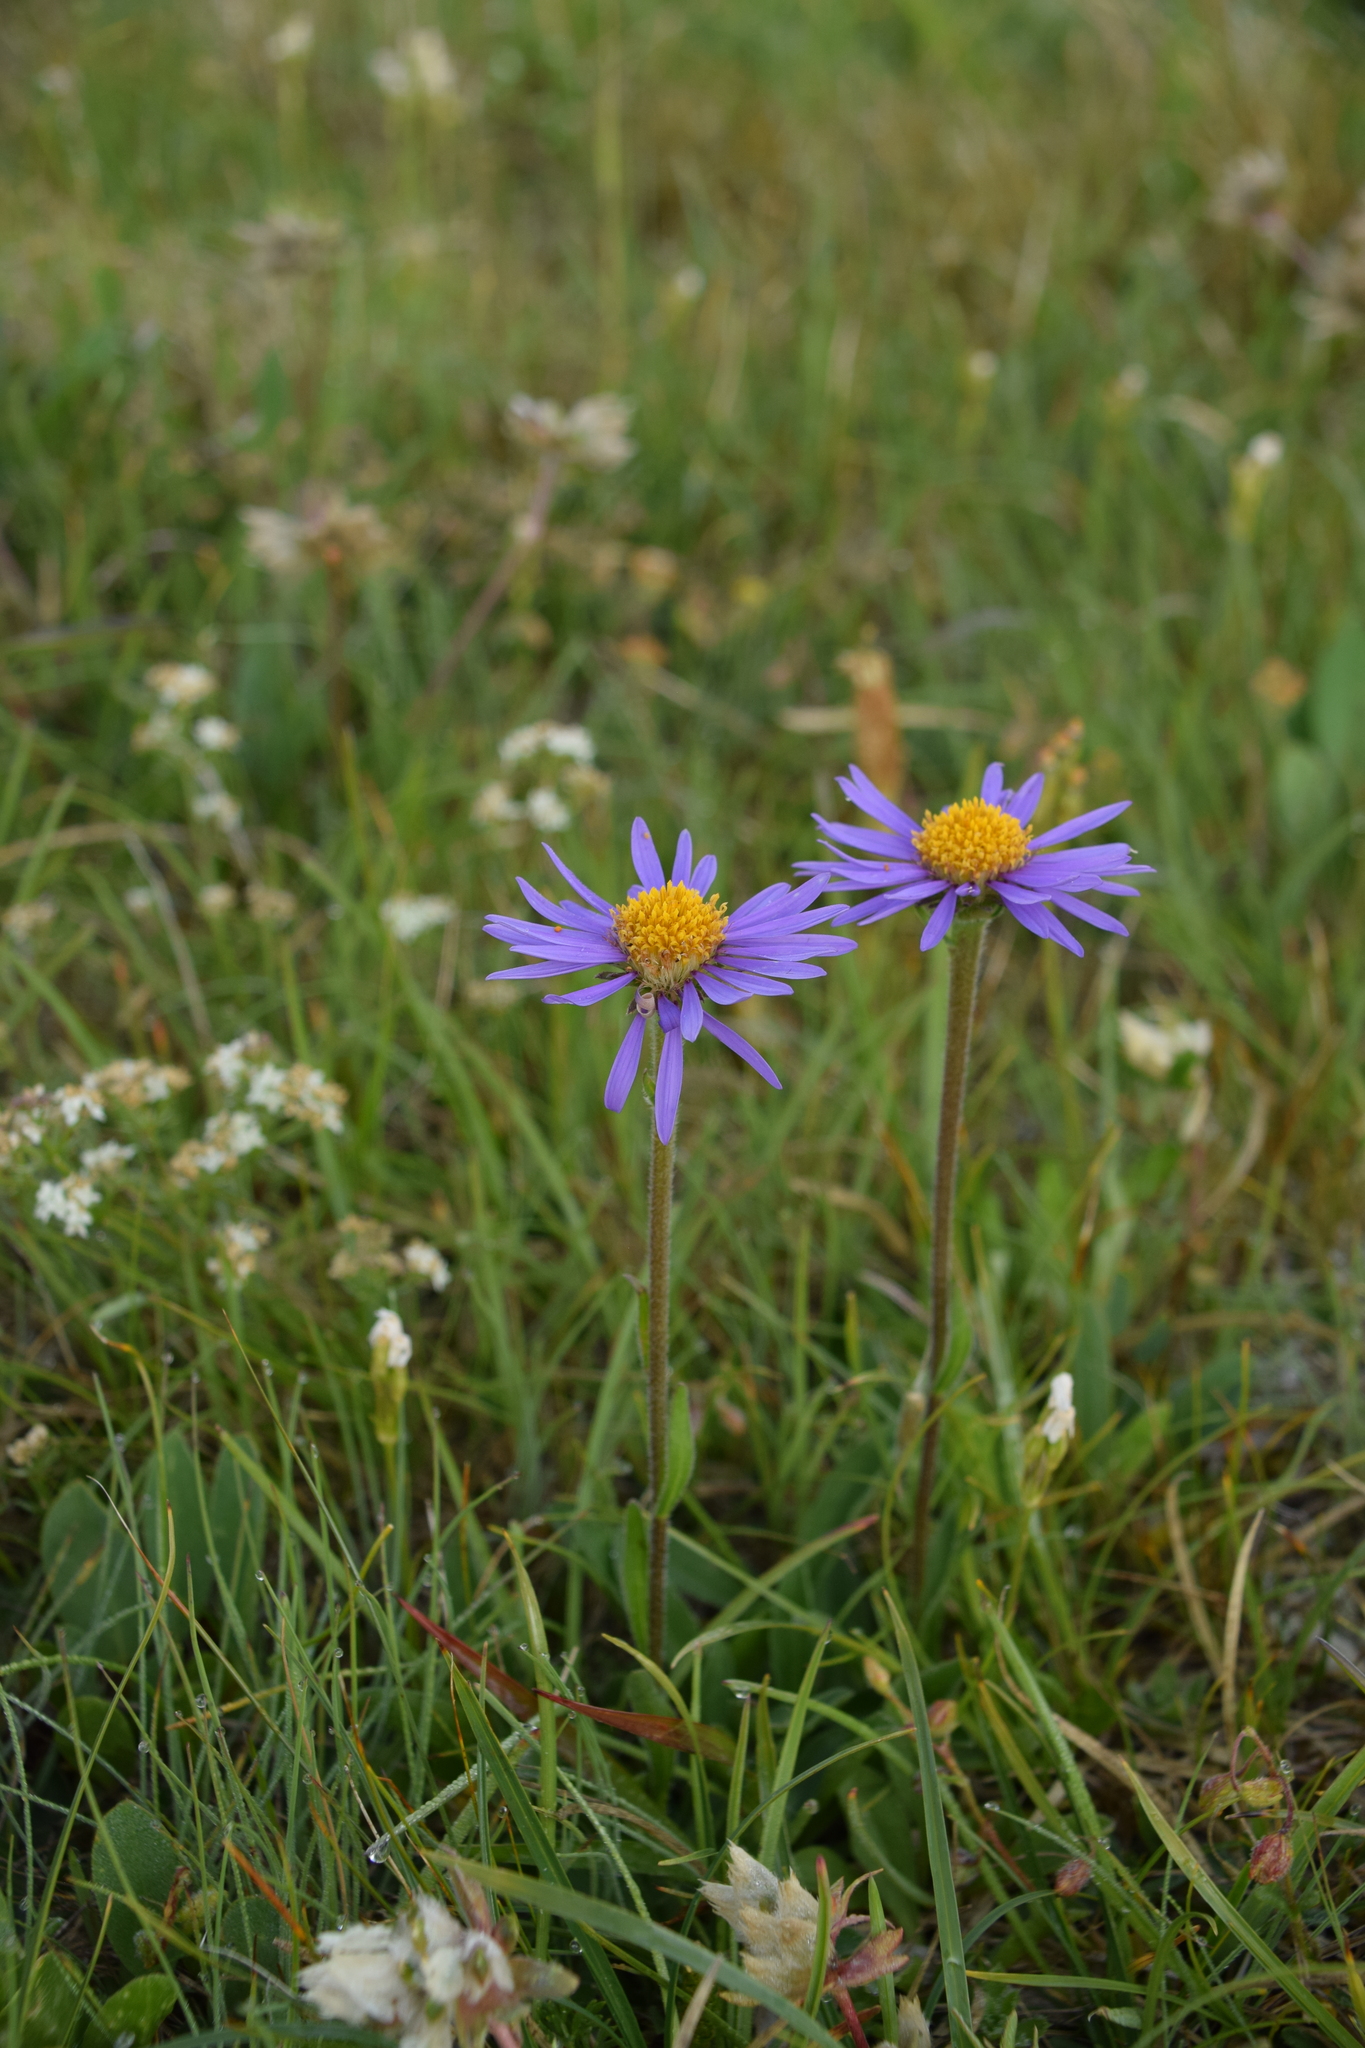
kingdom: Plantae
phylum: Tracheophyta
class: Magnoliopsida
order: Asterales
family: Asteraceae
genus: Aster
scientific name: Aster alpinus
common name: Alpine aster
